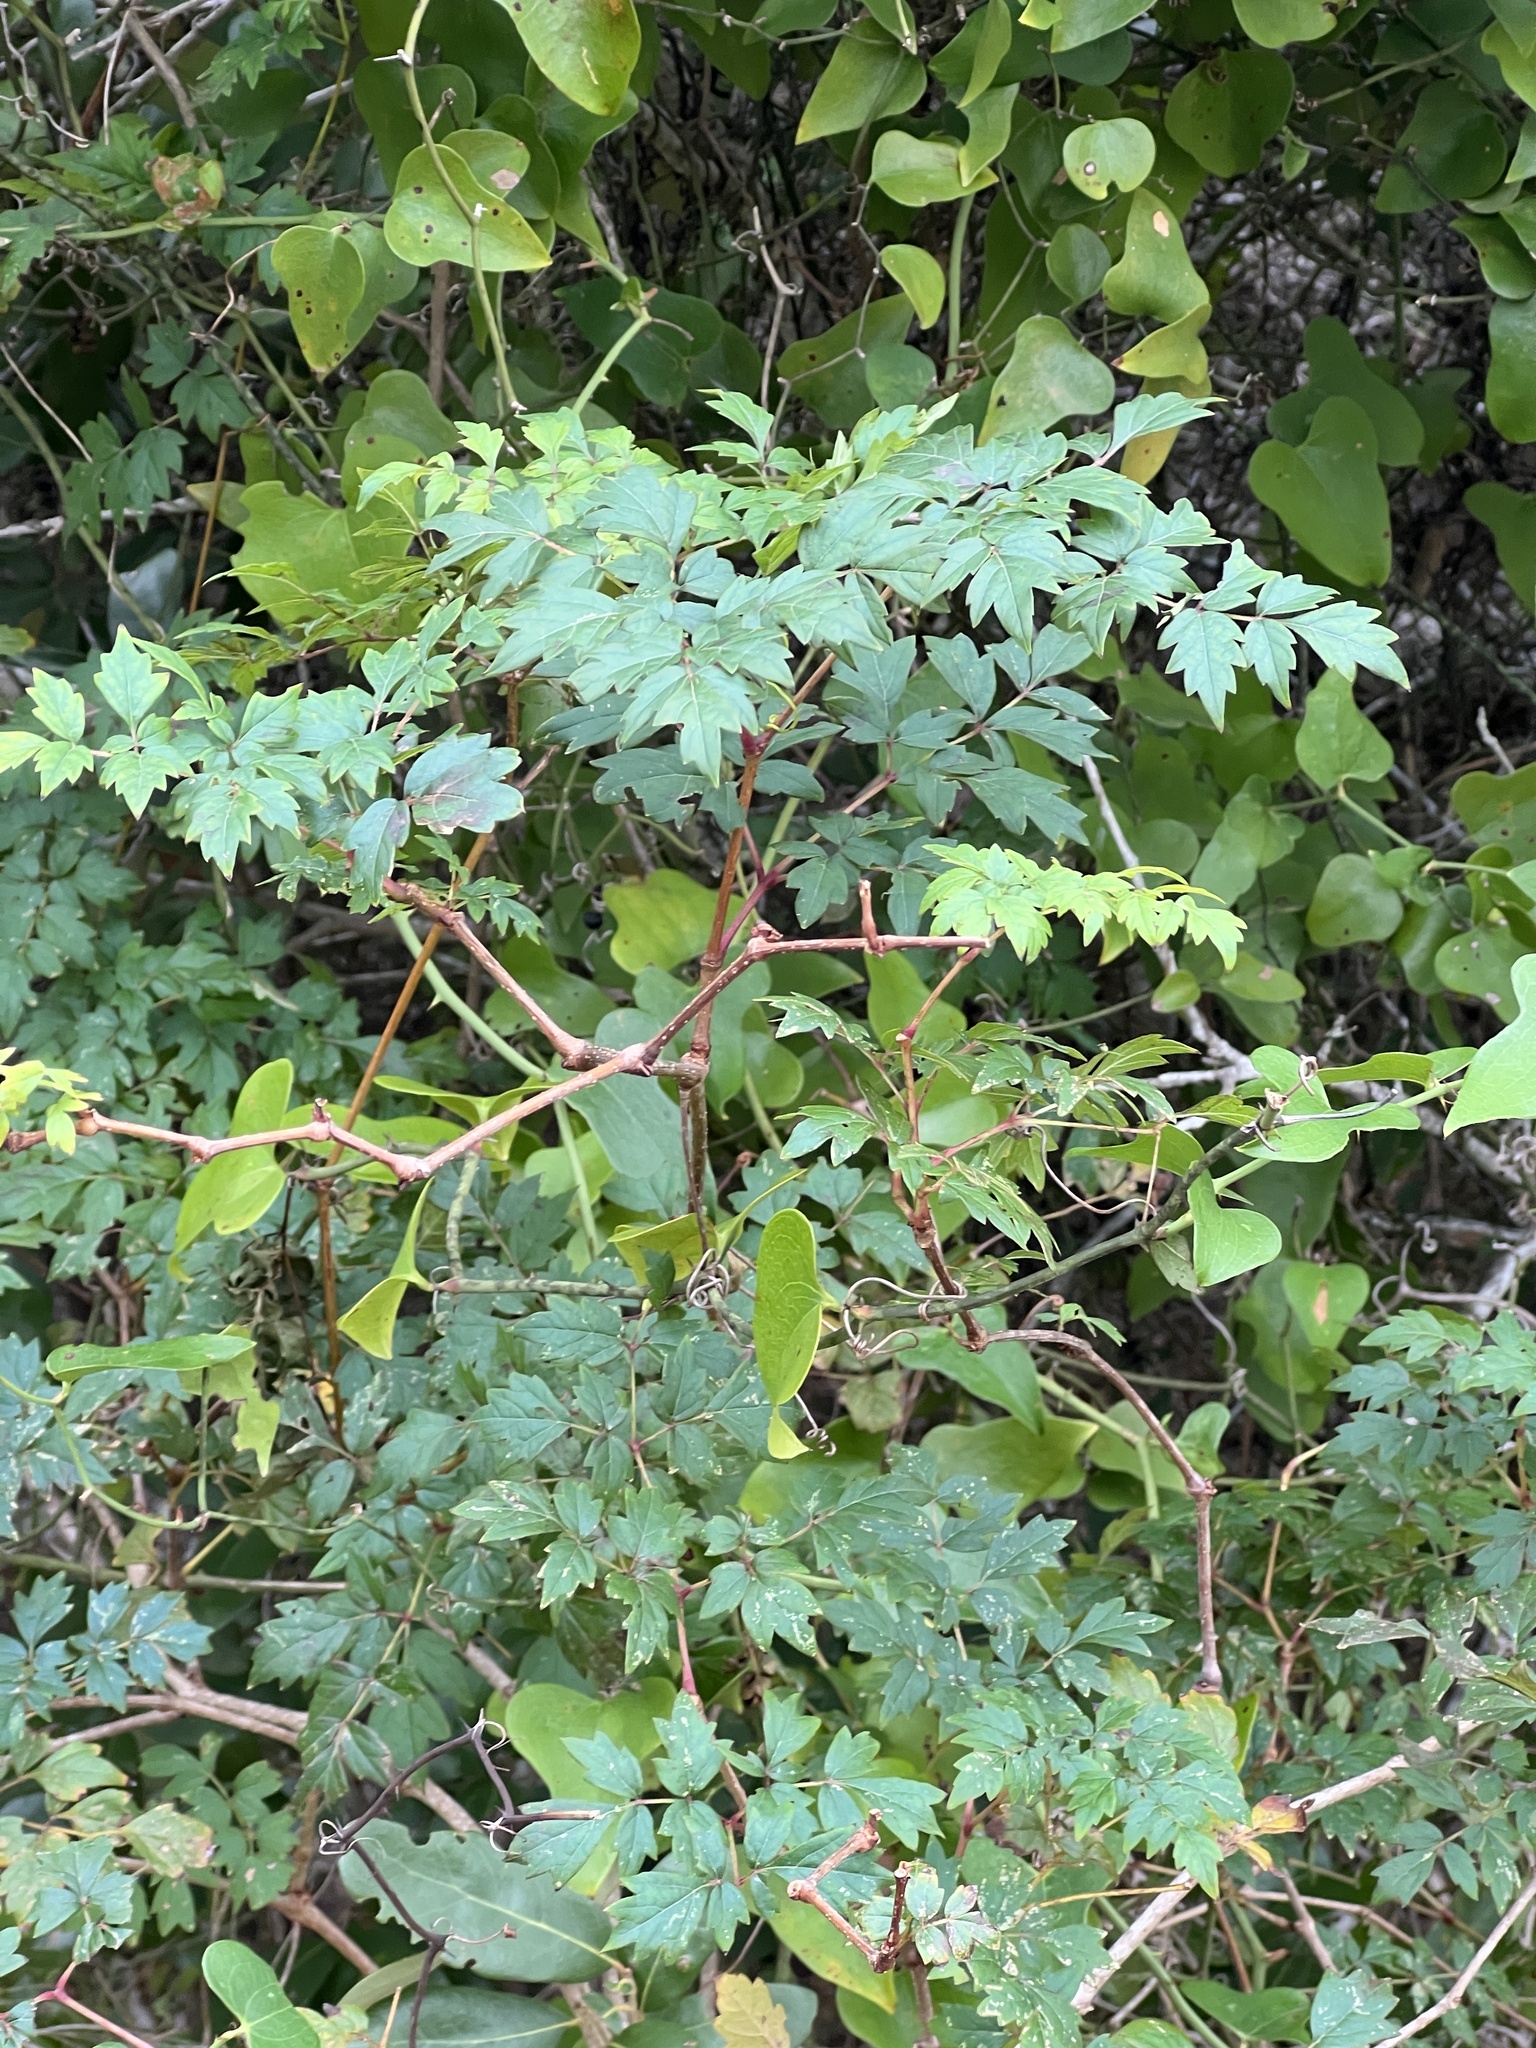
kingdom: Plantae
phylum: Tracheophyta
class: Magnoliopsida
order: Vitales
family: Vitaceae
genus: Nekemias
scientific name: Nekemias arborea
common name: Peppervine
